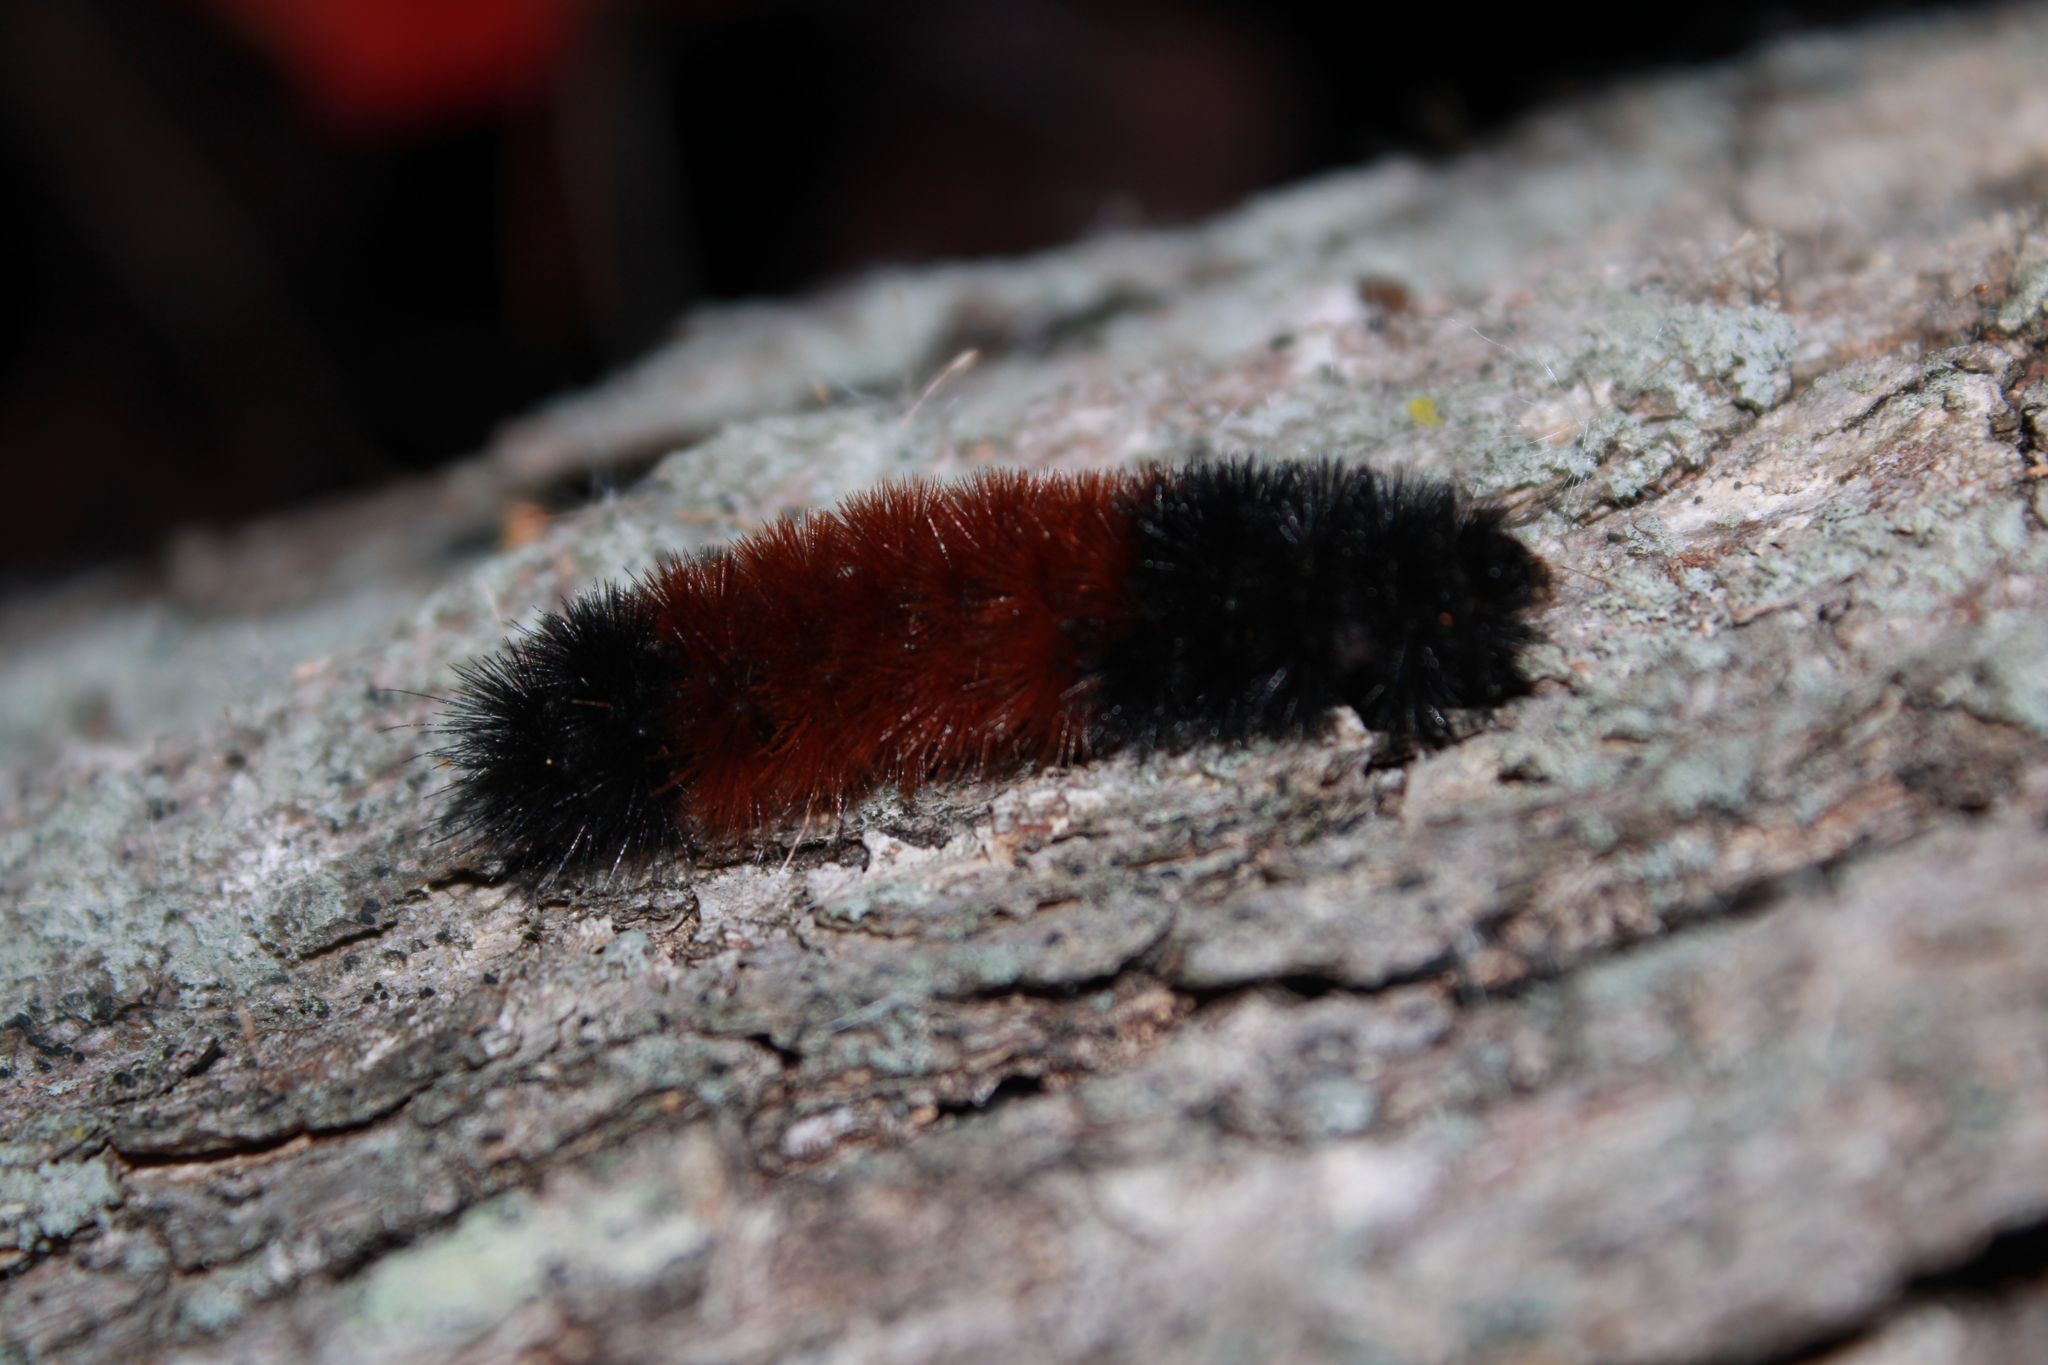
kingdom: Animalia
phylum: Arthropoda
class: Insecta
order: Lepidoptera
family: Erebidae
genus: Pyrrharctia
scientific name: Pyrrharctia isabella
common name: Isabella tiger moth
